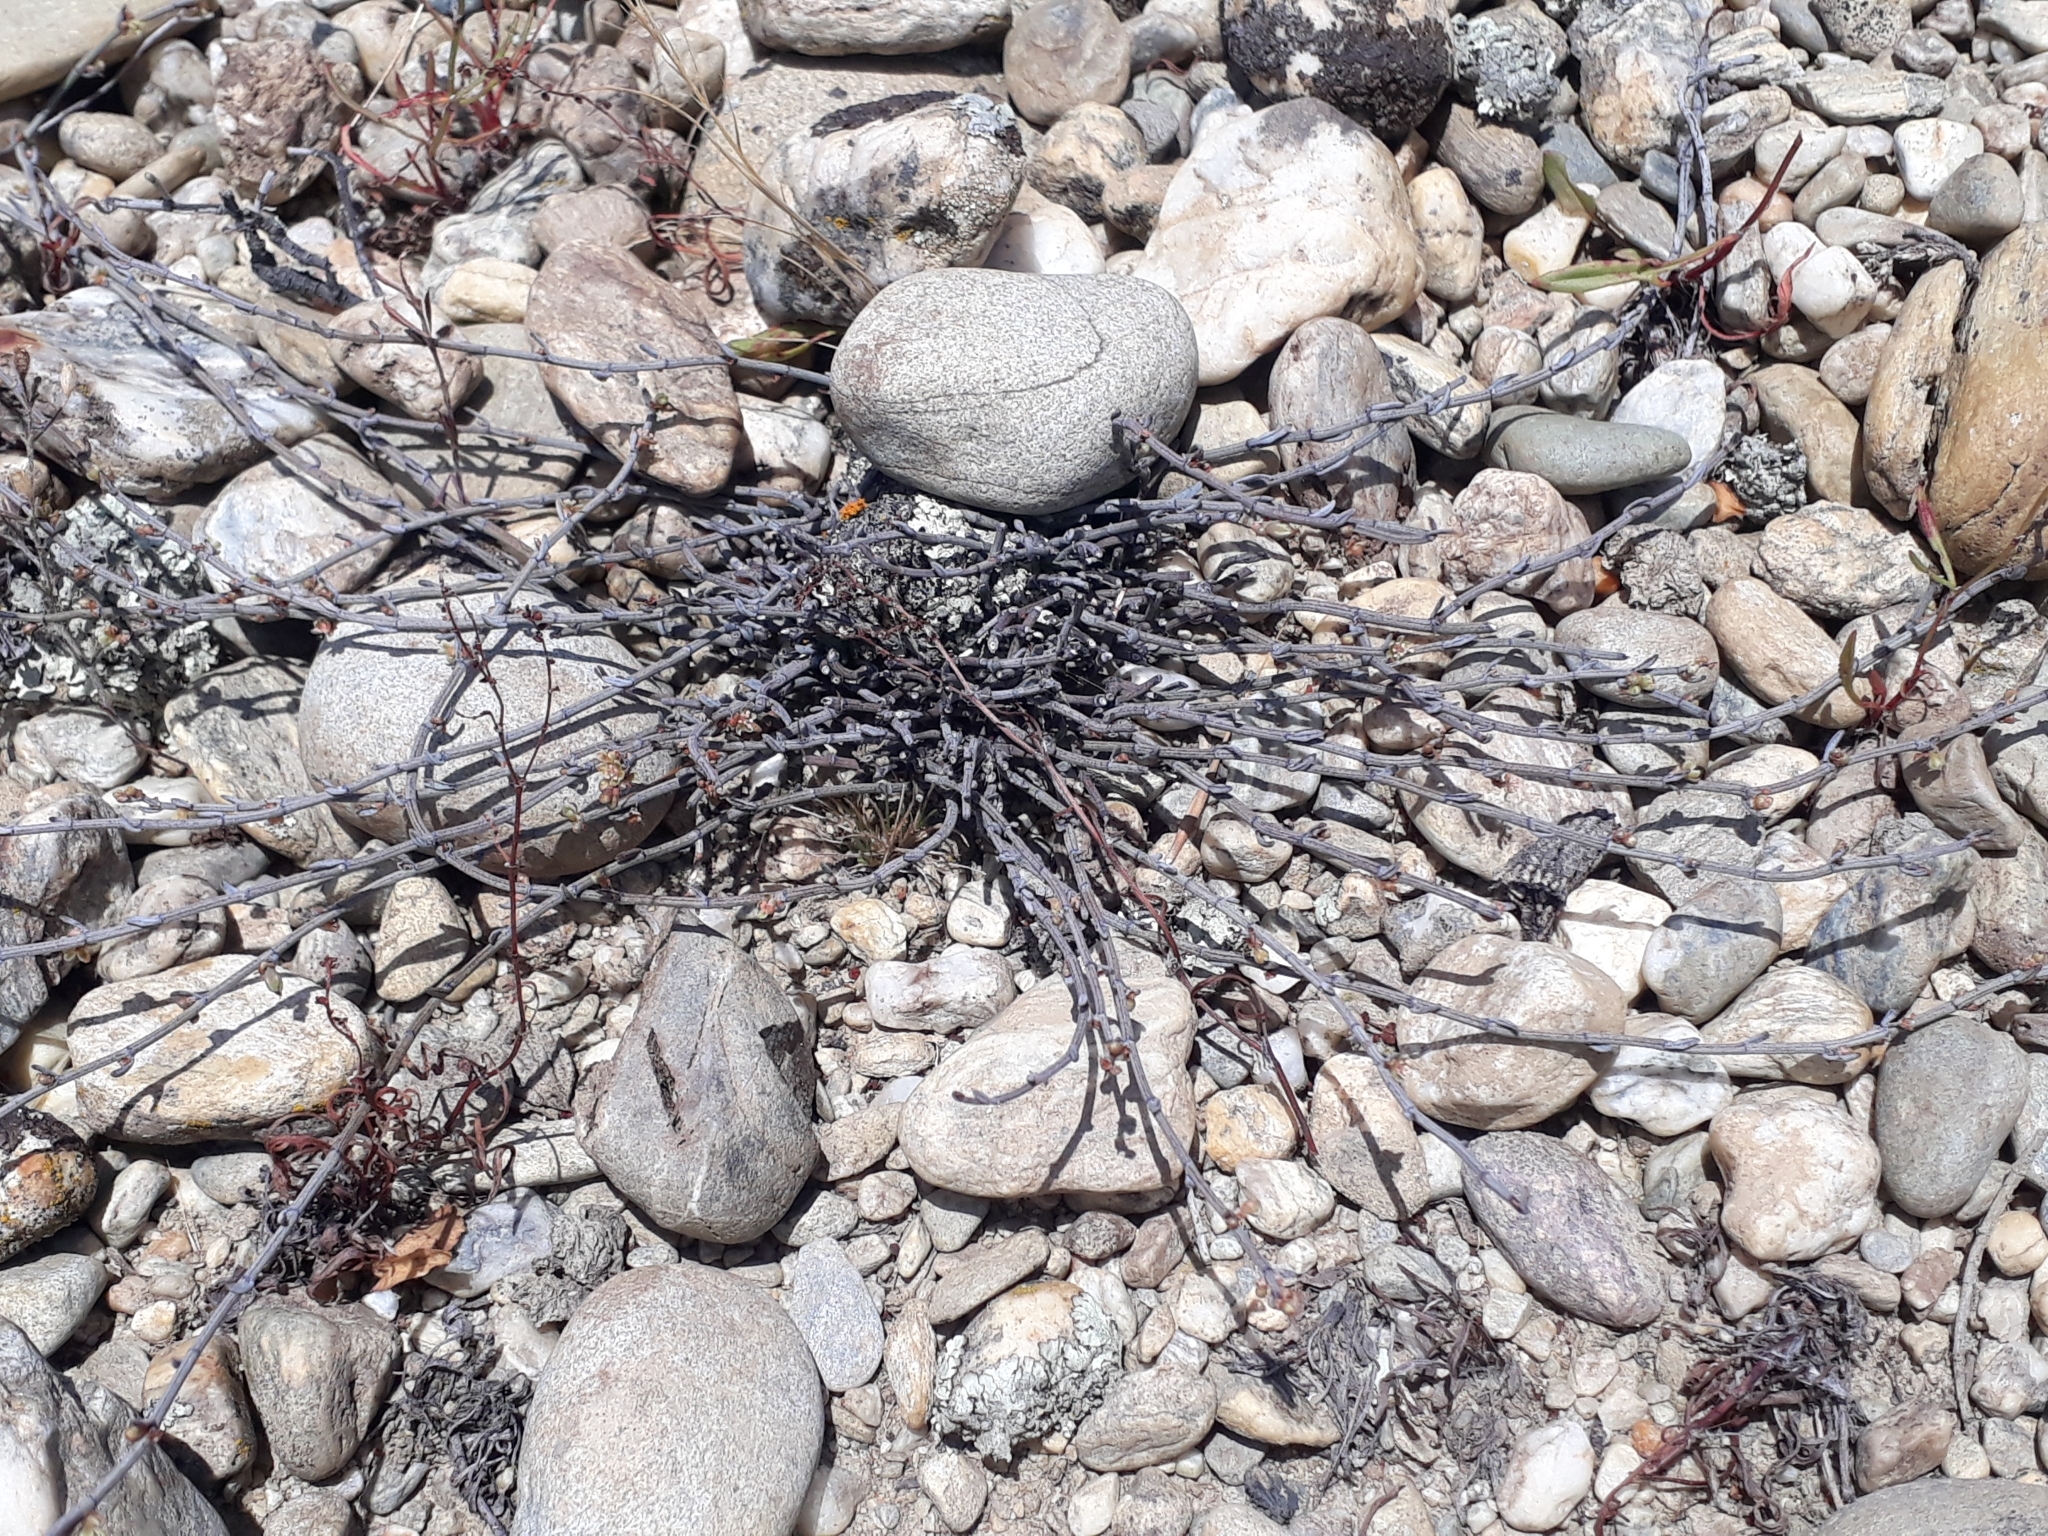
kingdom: Plantae
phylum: Tracheophyta
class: Magnoliopsida
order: Caryophyllales
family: Polygonaceae
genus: Muehlenbeckia
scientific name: Muehlenbeckia ephedroides
